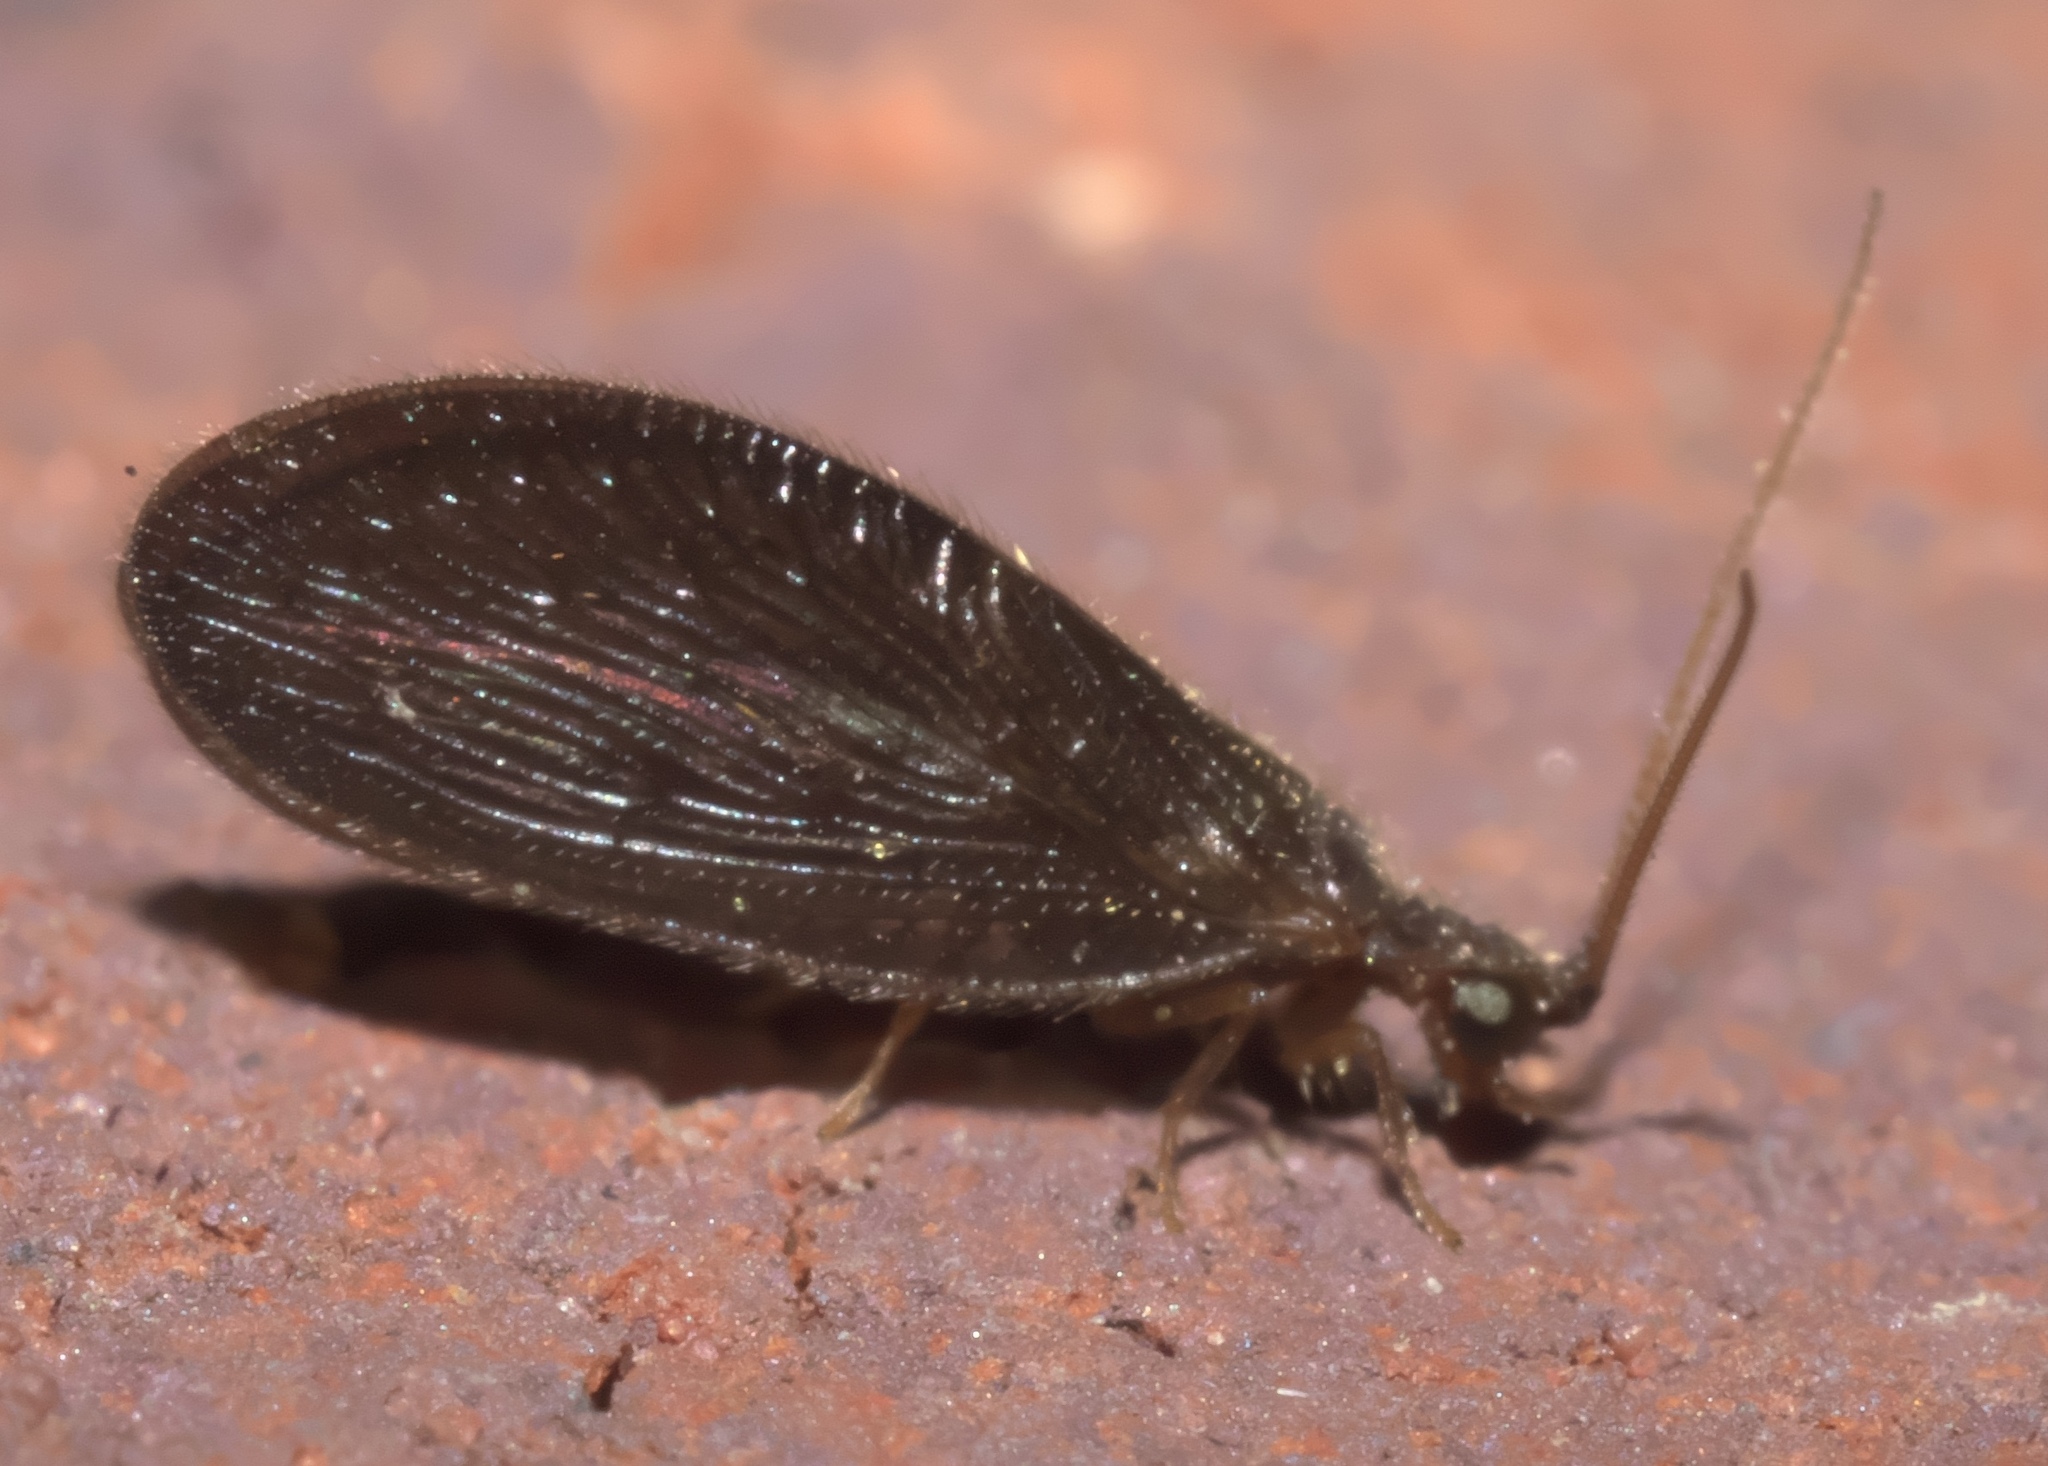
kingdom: Animalia
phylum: Arthropoda
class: Insecta
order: Neuroptera
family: Sisyridae
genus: Sisyra
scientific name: Sisyra vicaria
